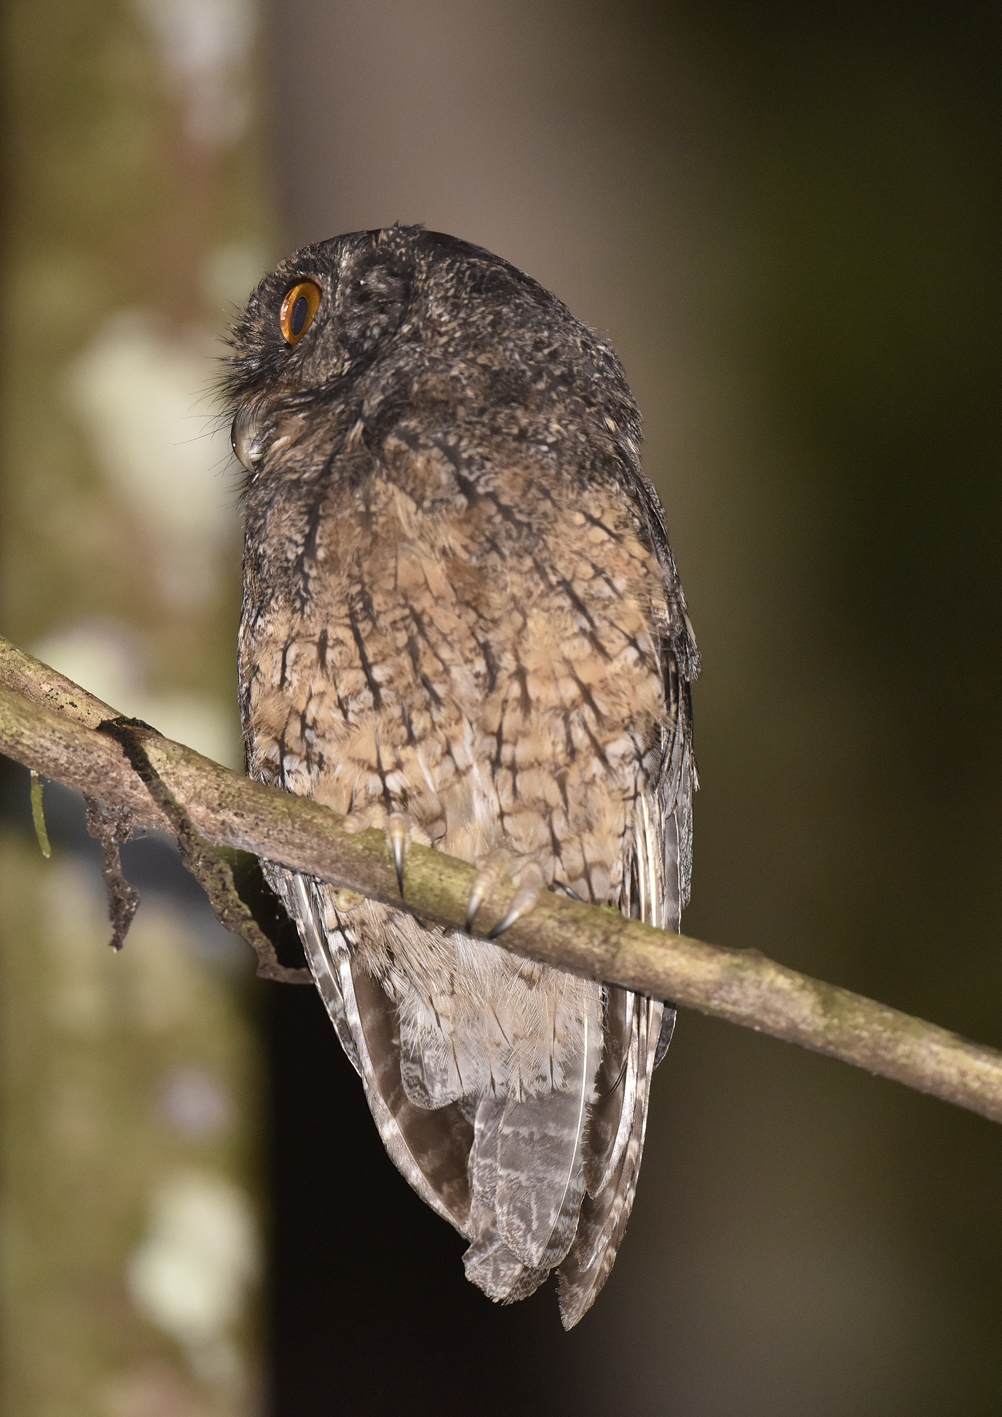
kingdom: Animalia
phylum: Chordata
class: Aves
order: Strigiformes
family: Strigidae
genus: Megascops
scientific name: Megascops watsonii
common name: Tawny-bellied screech-owl
